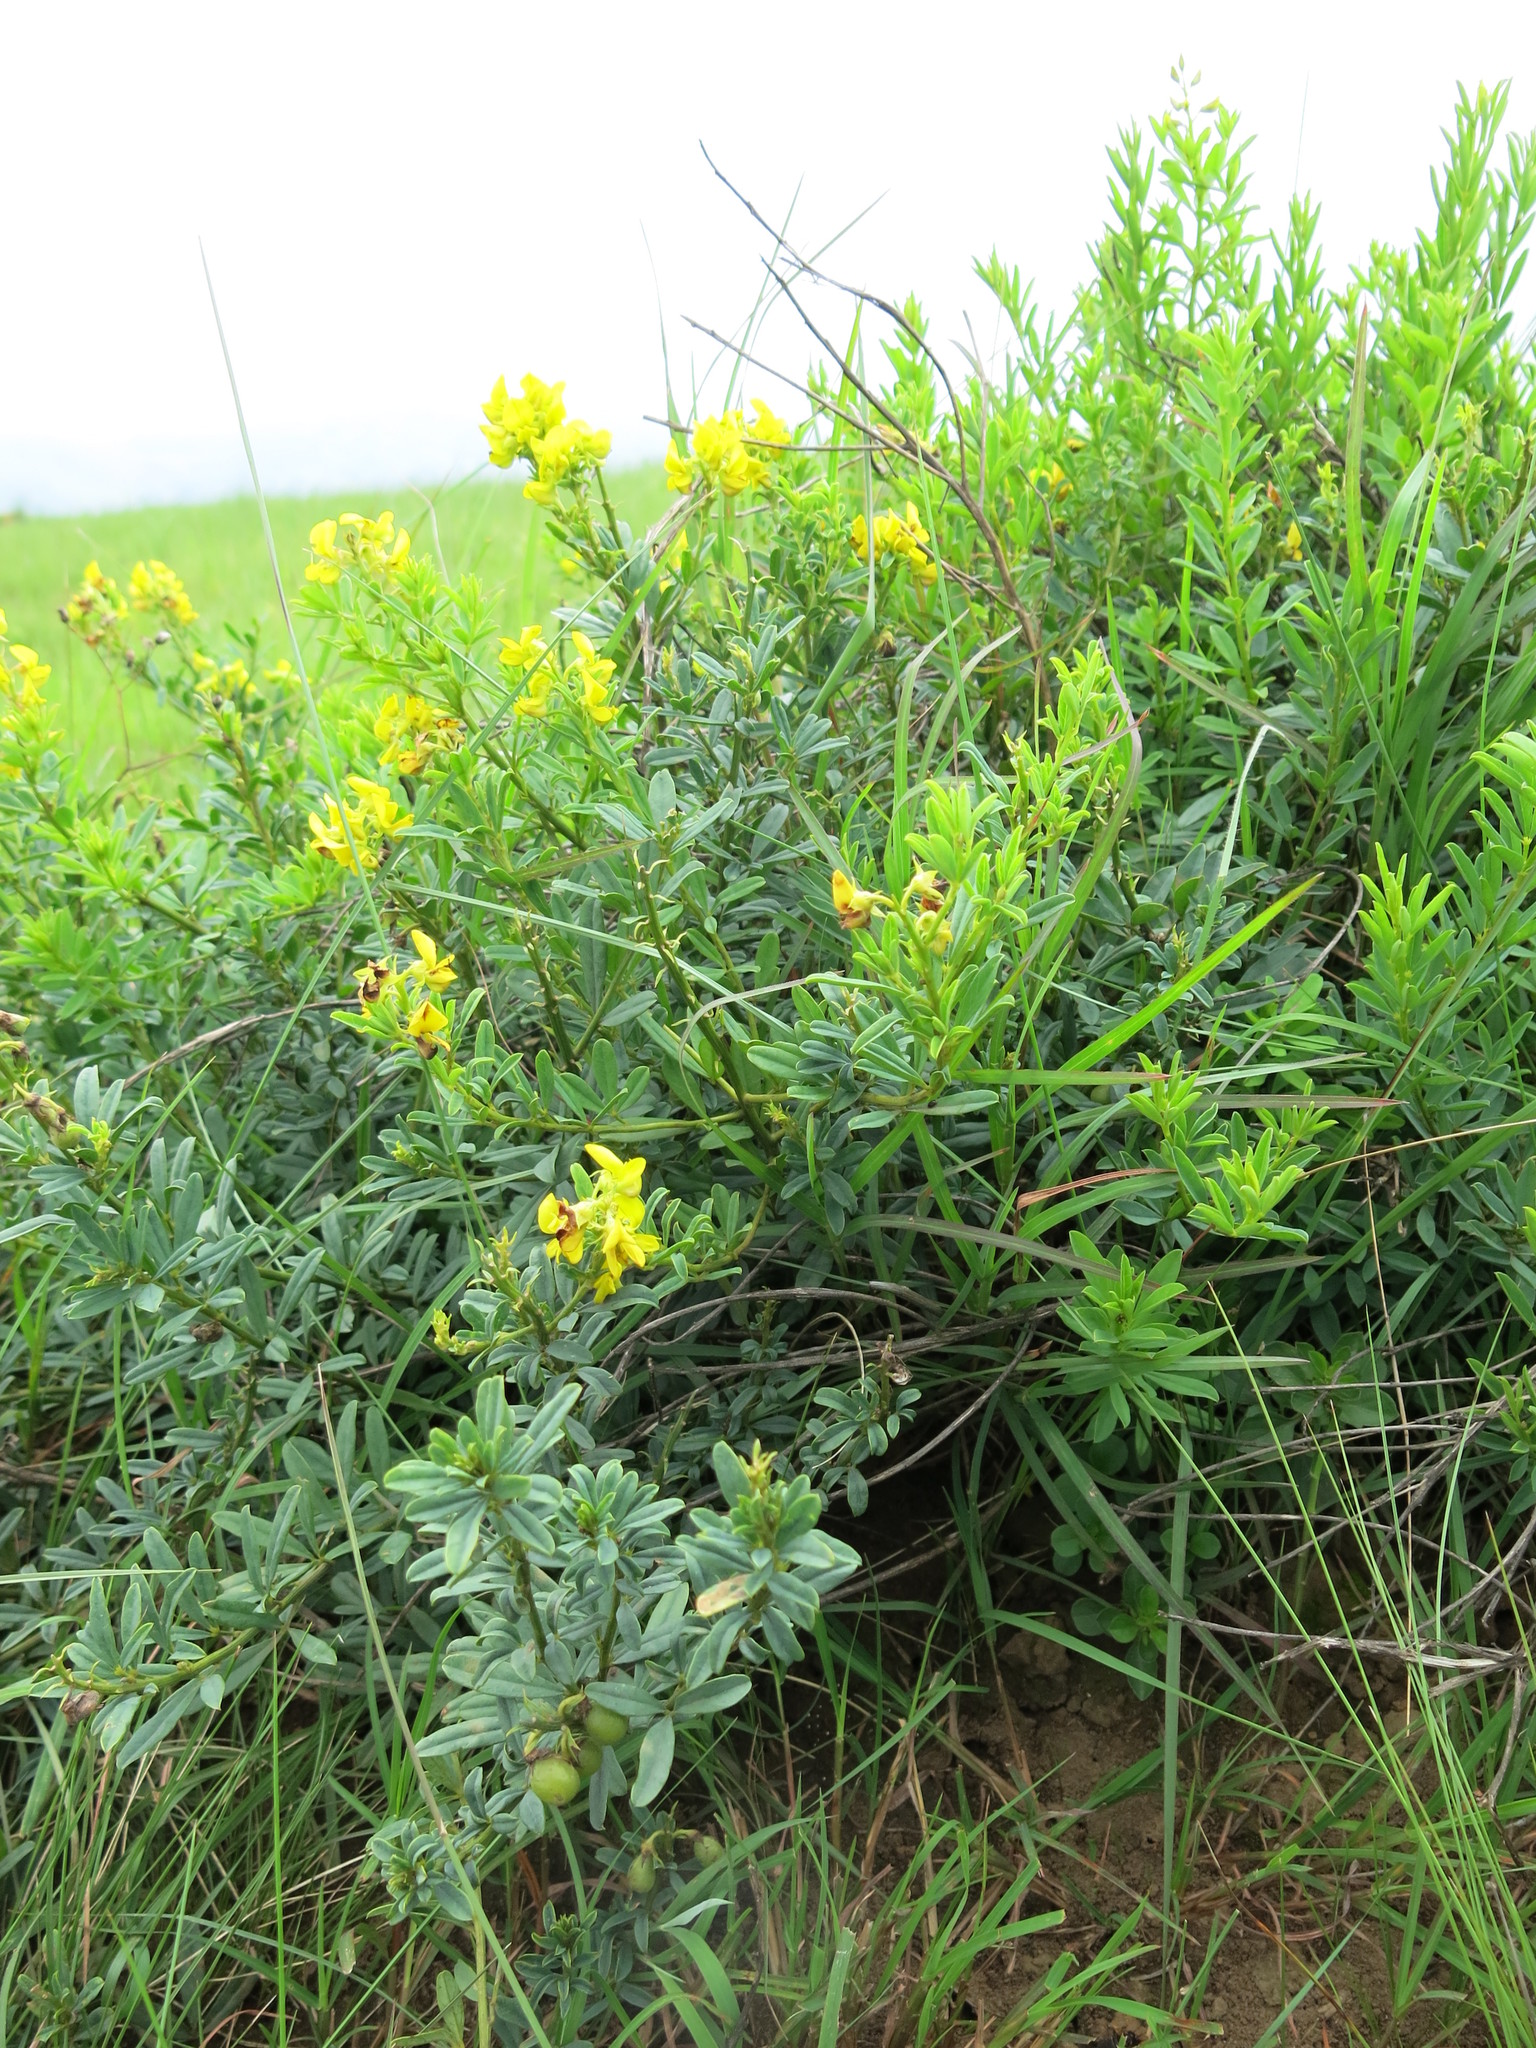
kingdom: Plantae
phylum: Tracheophyta
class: Magnoliopsida
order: Fabales
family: Fabaceae
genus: Crotalaria
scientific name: Crotalaria dura
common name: Wild lucerne
